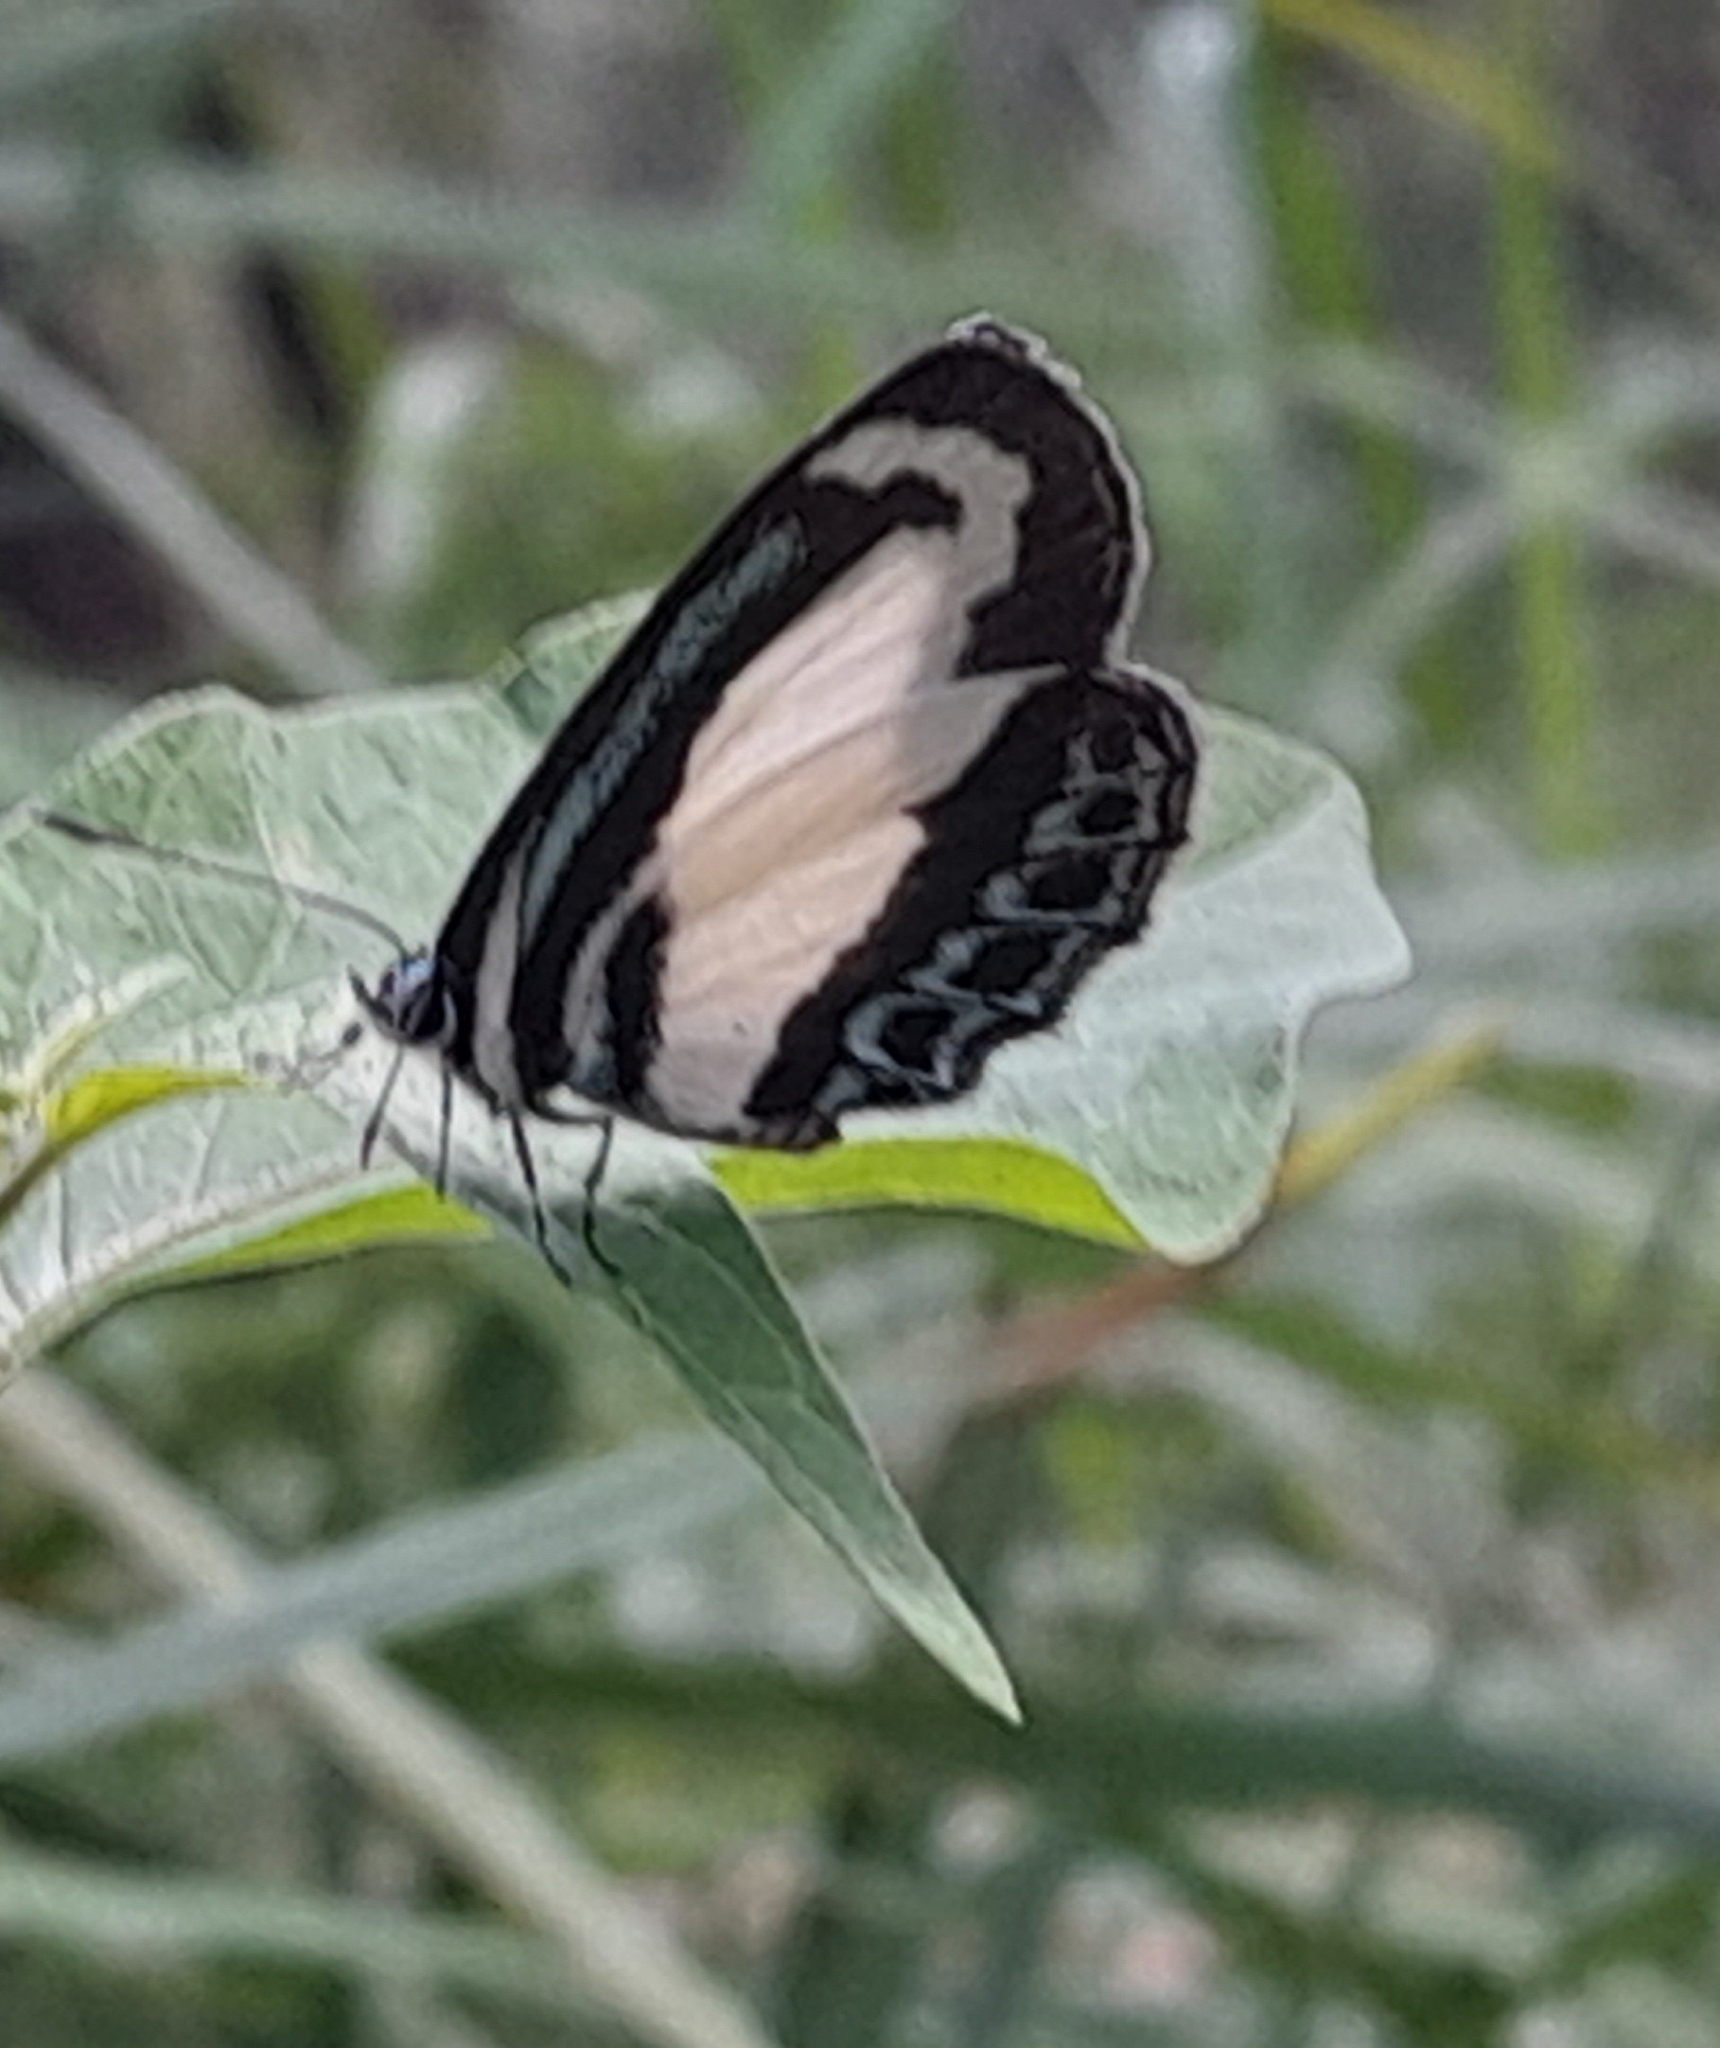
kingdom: Animalia
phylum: Arthropoda
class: Insecta
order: Lepidoptera
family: Lycaenidae
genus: Psychonotis
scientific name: Psychonotis caelius
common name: Small green banded blue
